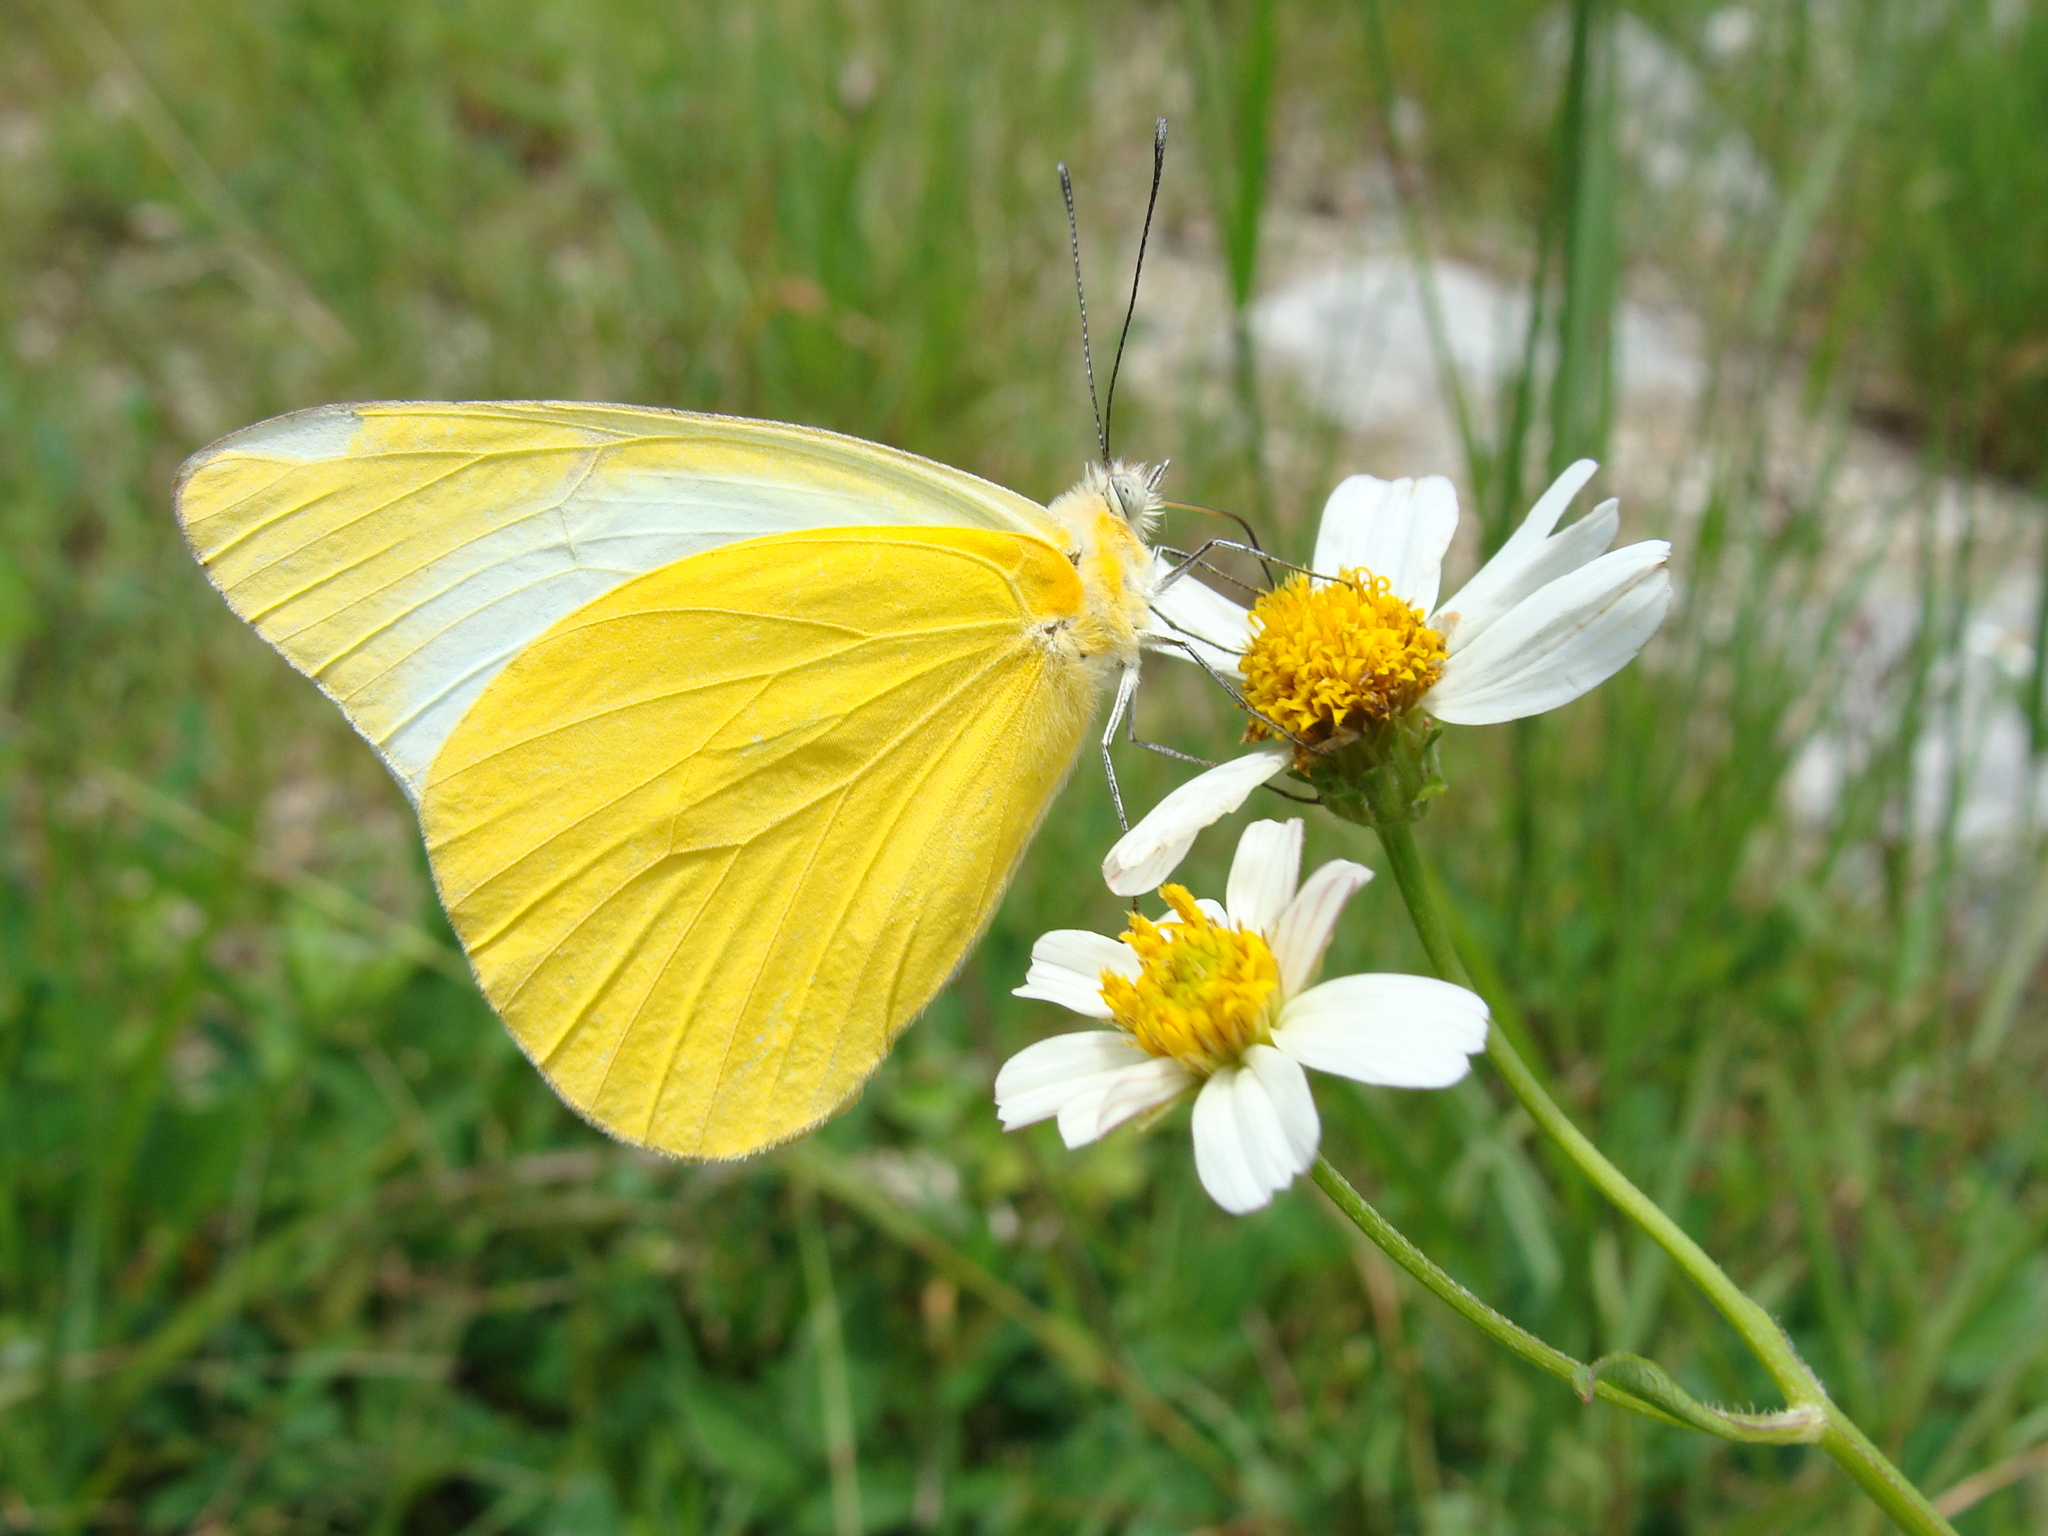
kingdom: Animalia
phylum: Arthropoda
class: Insecta
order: Lepidoptera
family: Pieridae
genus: Melete
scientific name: Melete lycimnia
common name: Common melwhite
